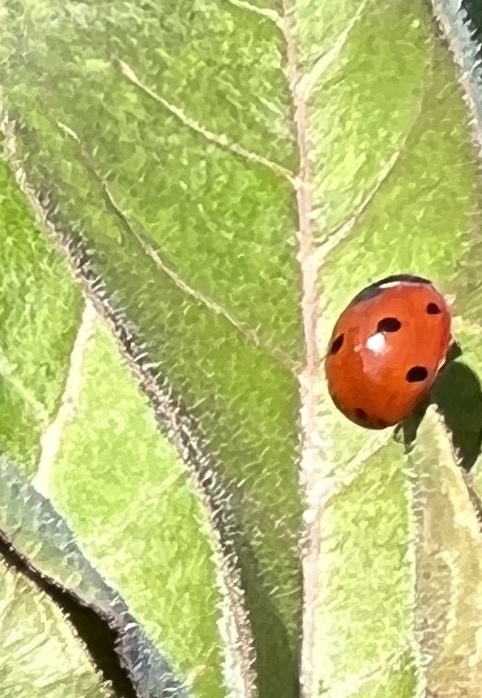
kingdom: Animalia
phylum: Arthropoda
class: Insecta
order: Coleoptera
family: Coccinellidae
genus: Coccinella
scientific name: Coccinella septempunctata
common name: Sevenspotted lady beetle
